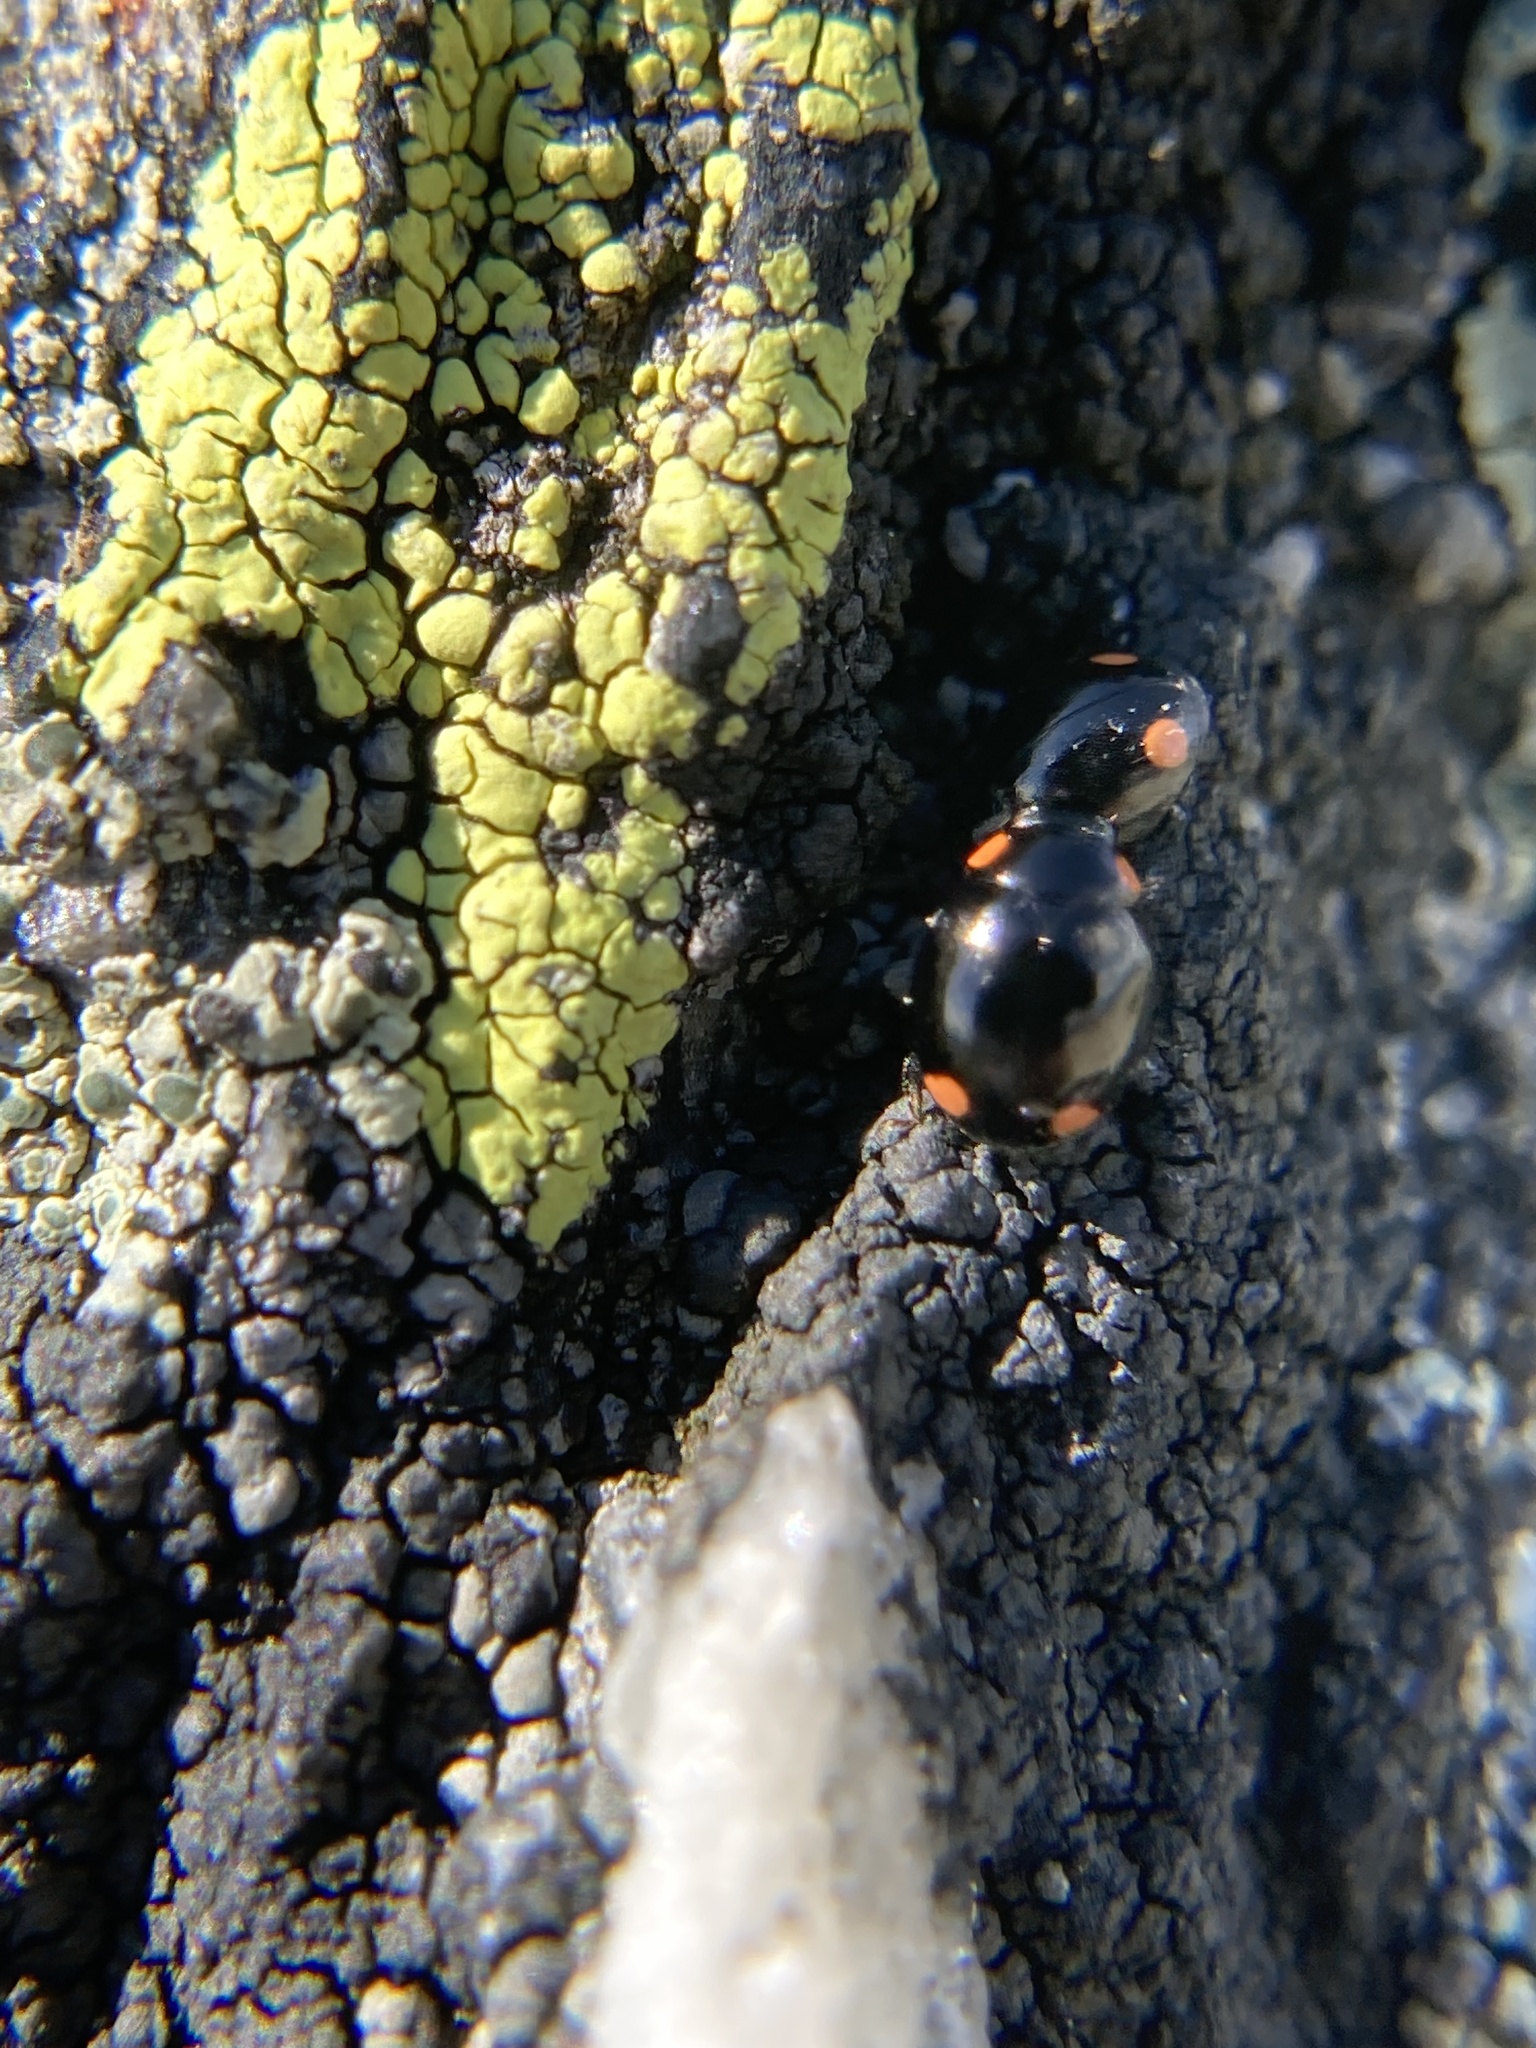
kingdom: Animalia
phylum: Arthropoda
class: Insecta
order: Coleoptera
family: Coccinellidae
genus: Hyperaspis
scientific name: Hyperaspis bigeminata
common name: Bigeminate sigil lady beetle
